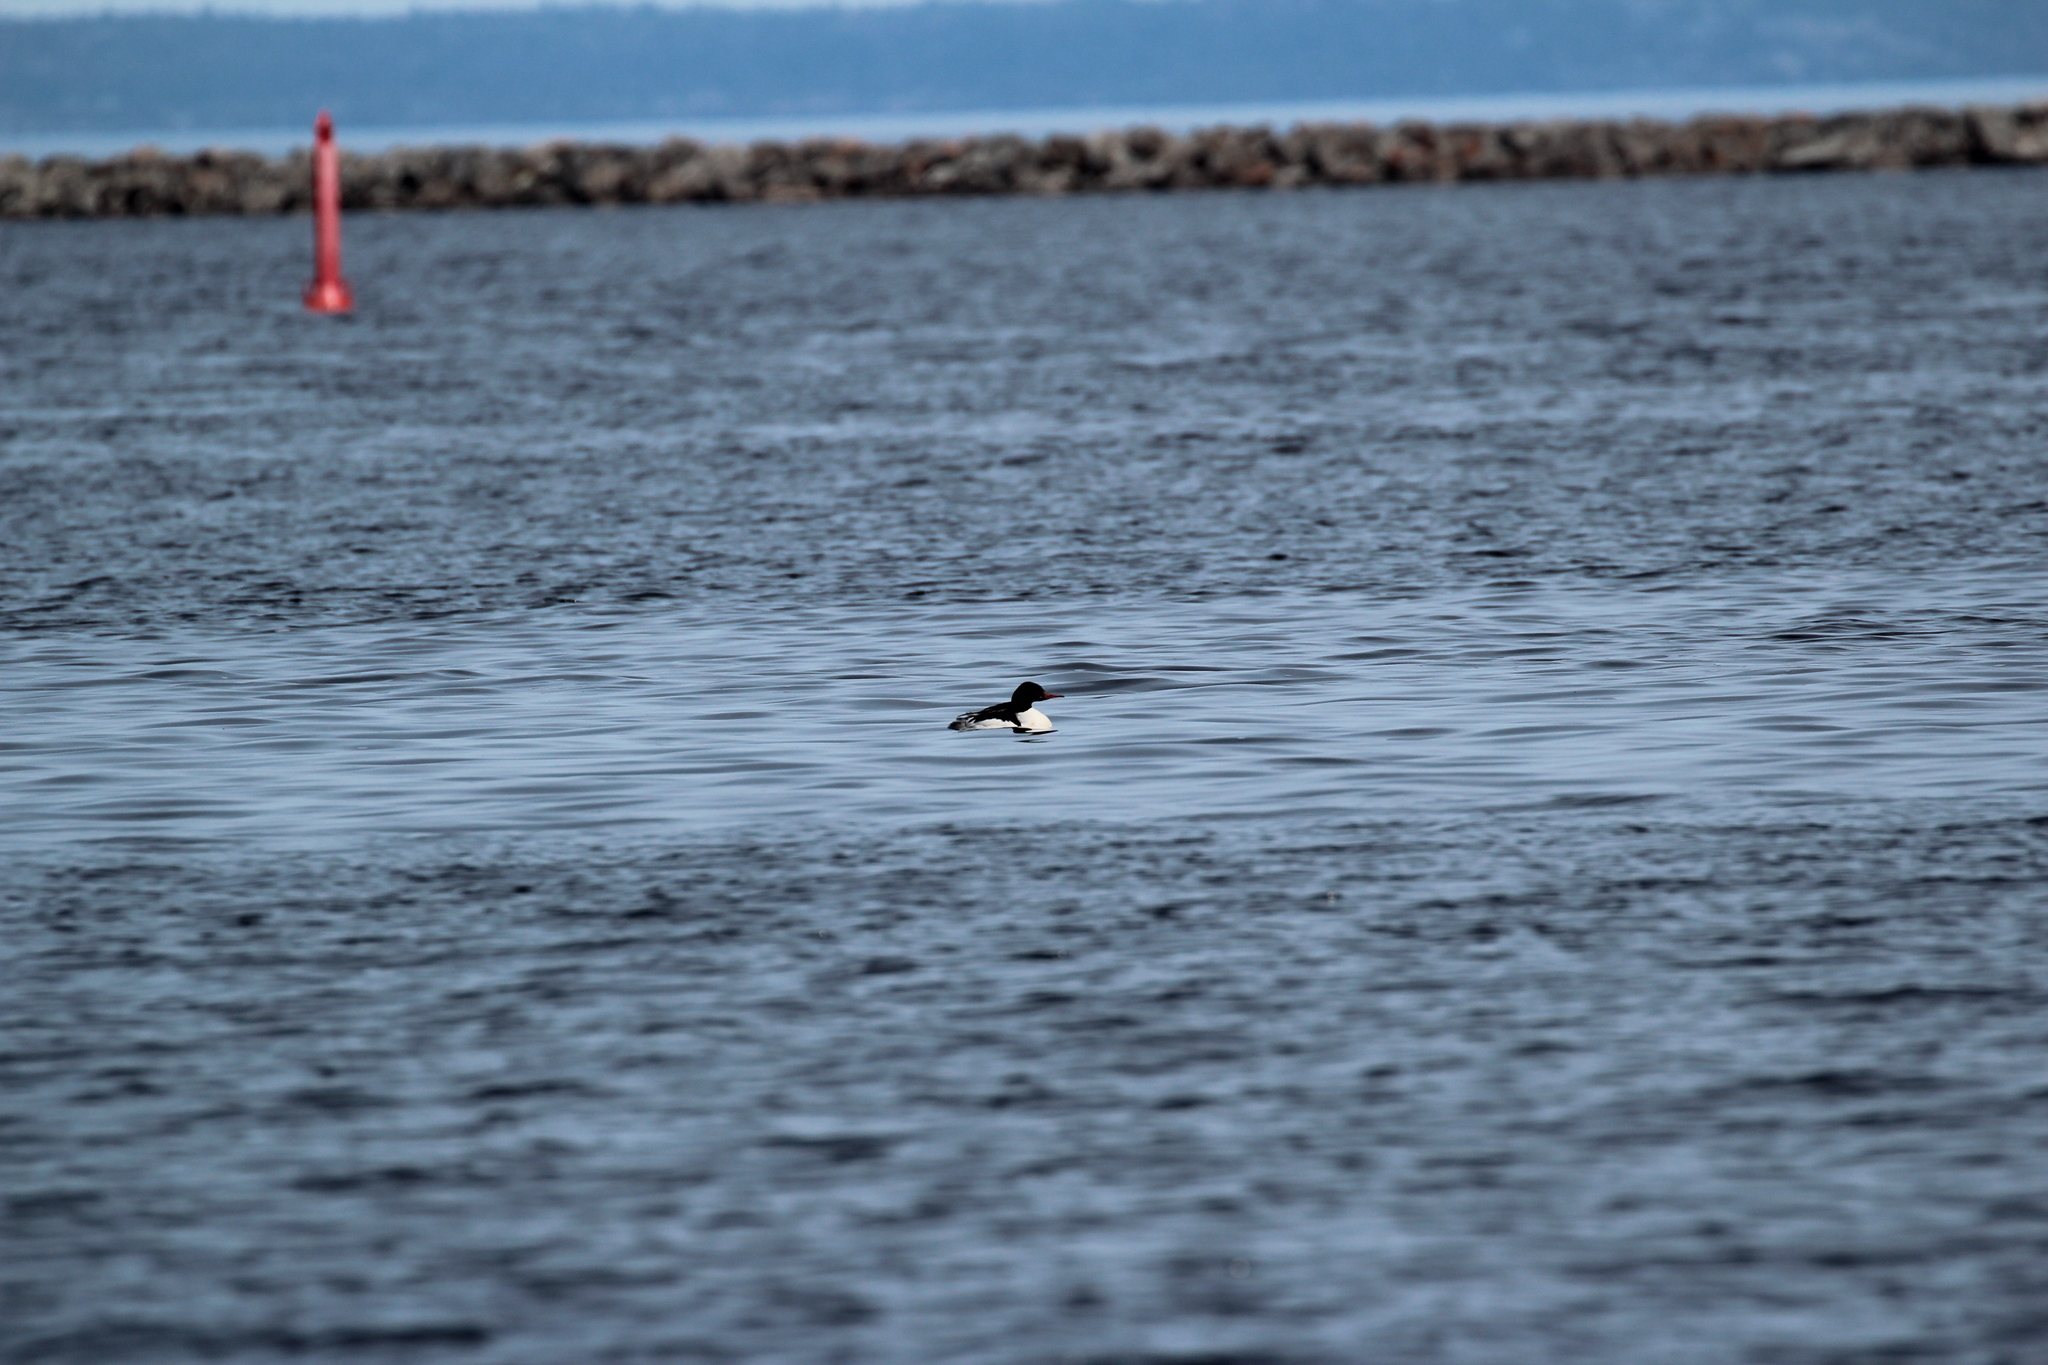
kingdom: Animalia
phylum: Chordata
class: Aves
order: Anseriformes
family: Anatidae
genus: Mergus
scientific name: Mergus merganser
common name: Common merganser
